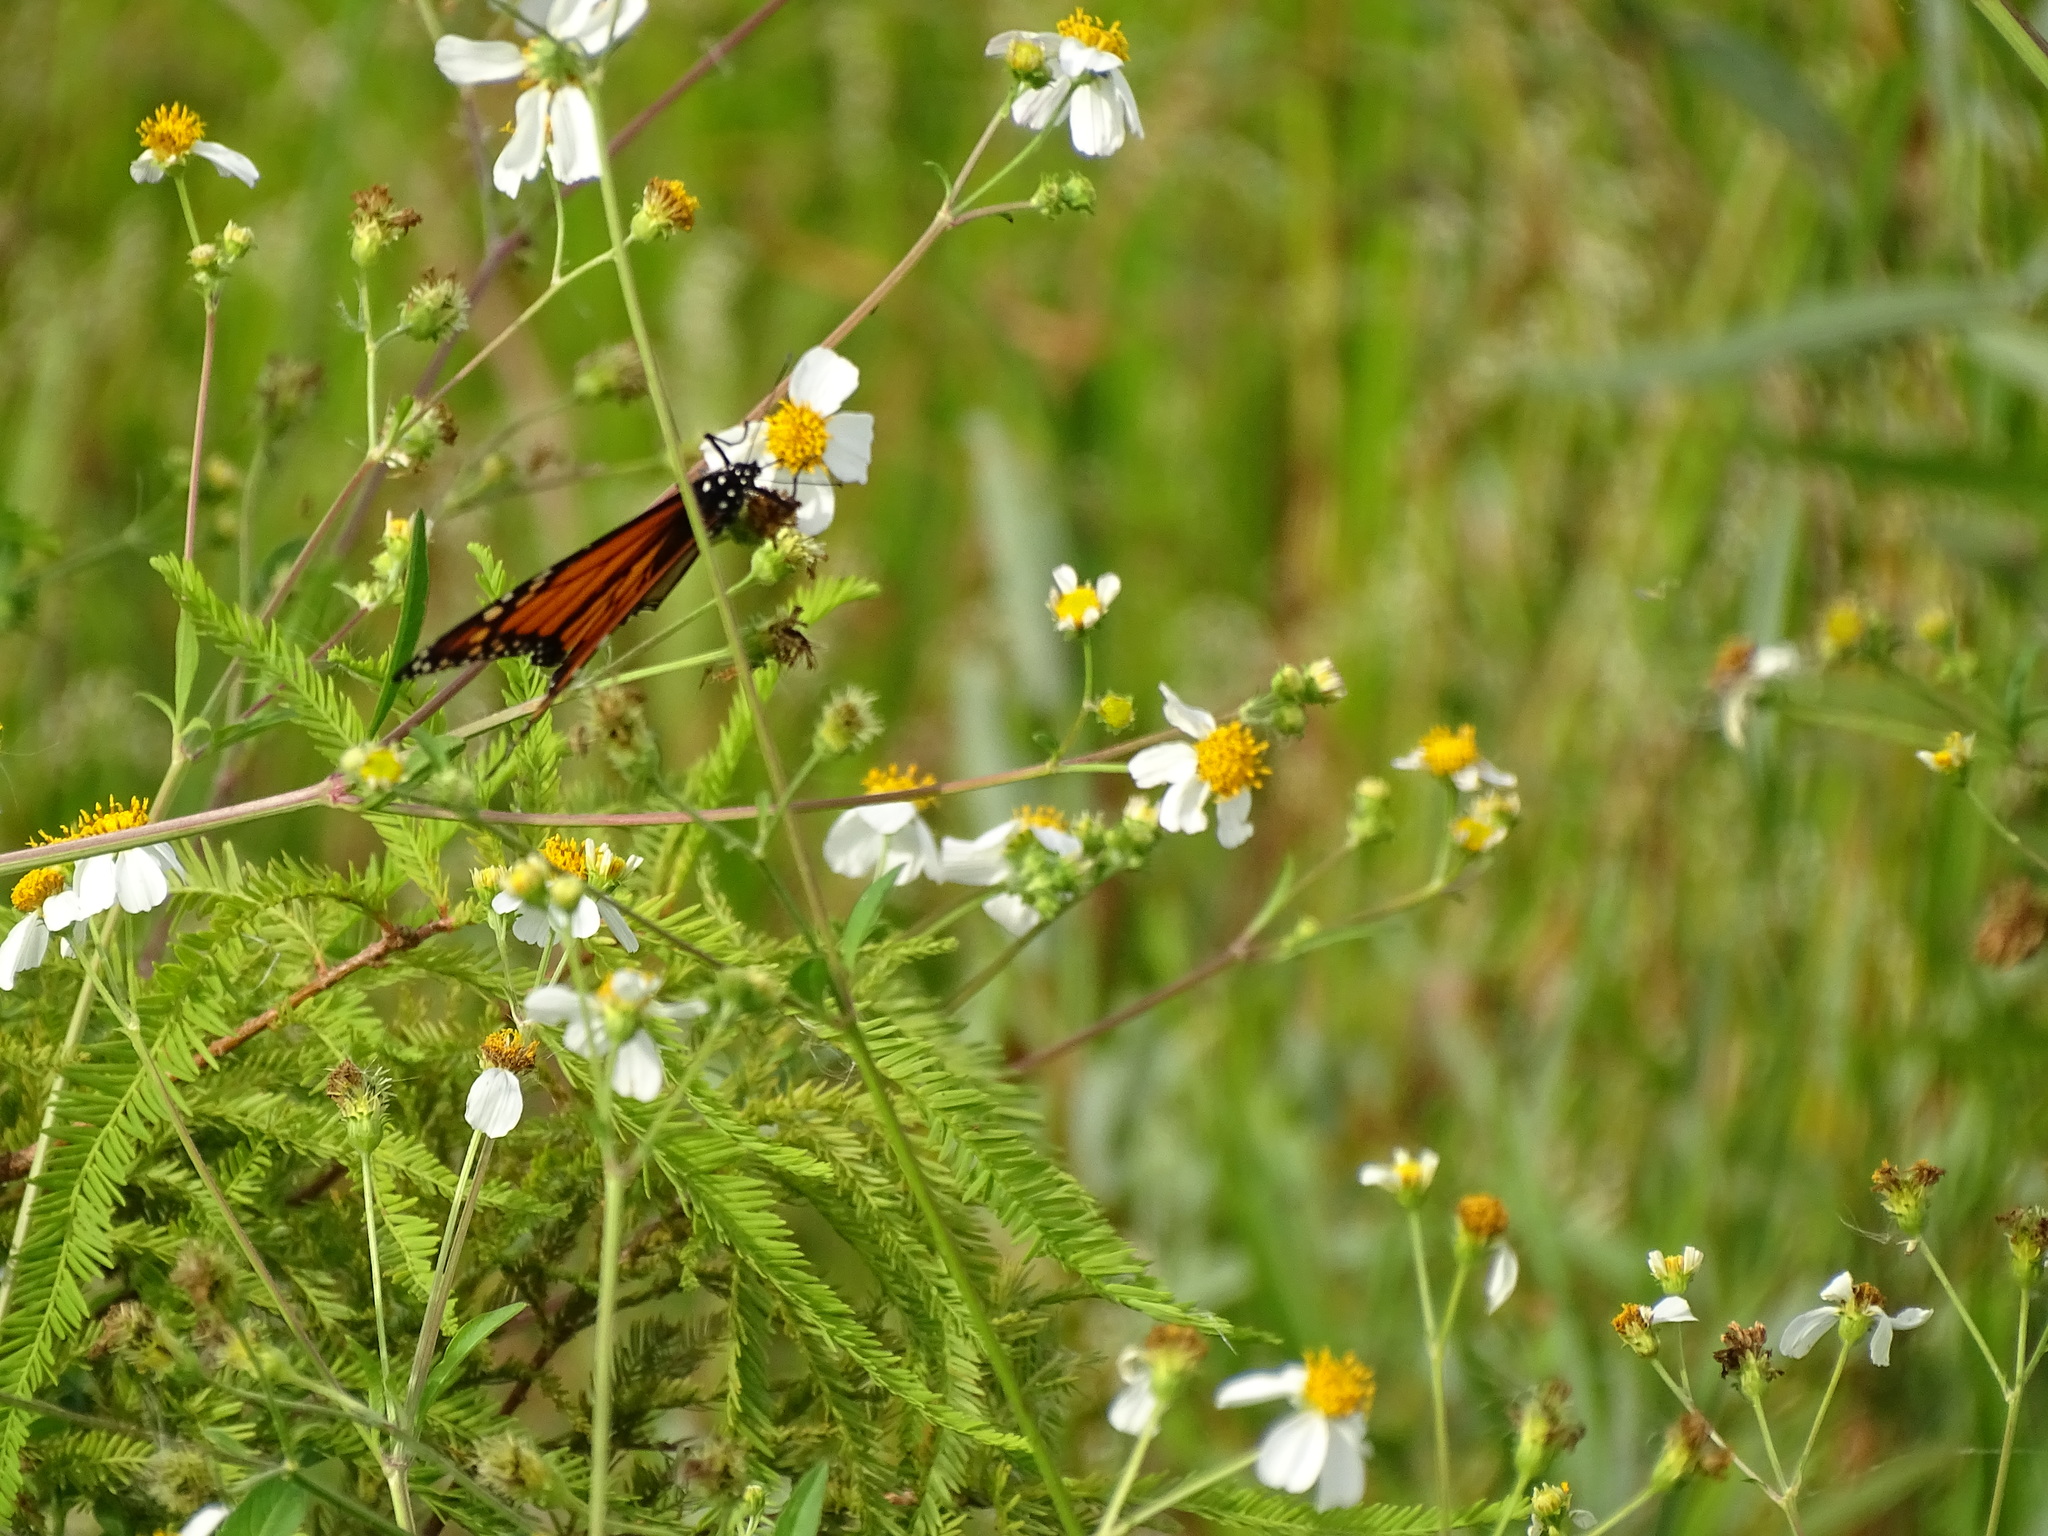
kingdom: Animalia
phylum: Arthropoda
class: Insecta
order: Lepidoptera
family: Nymphalidae
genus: Danaus
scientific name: Danaus plexippus
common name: Monarch
